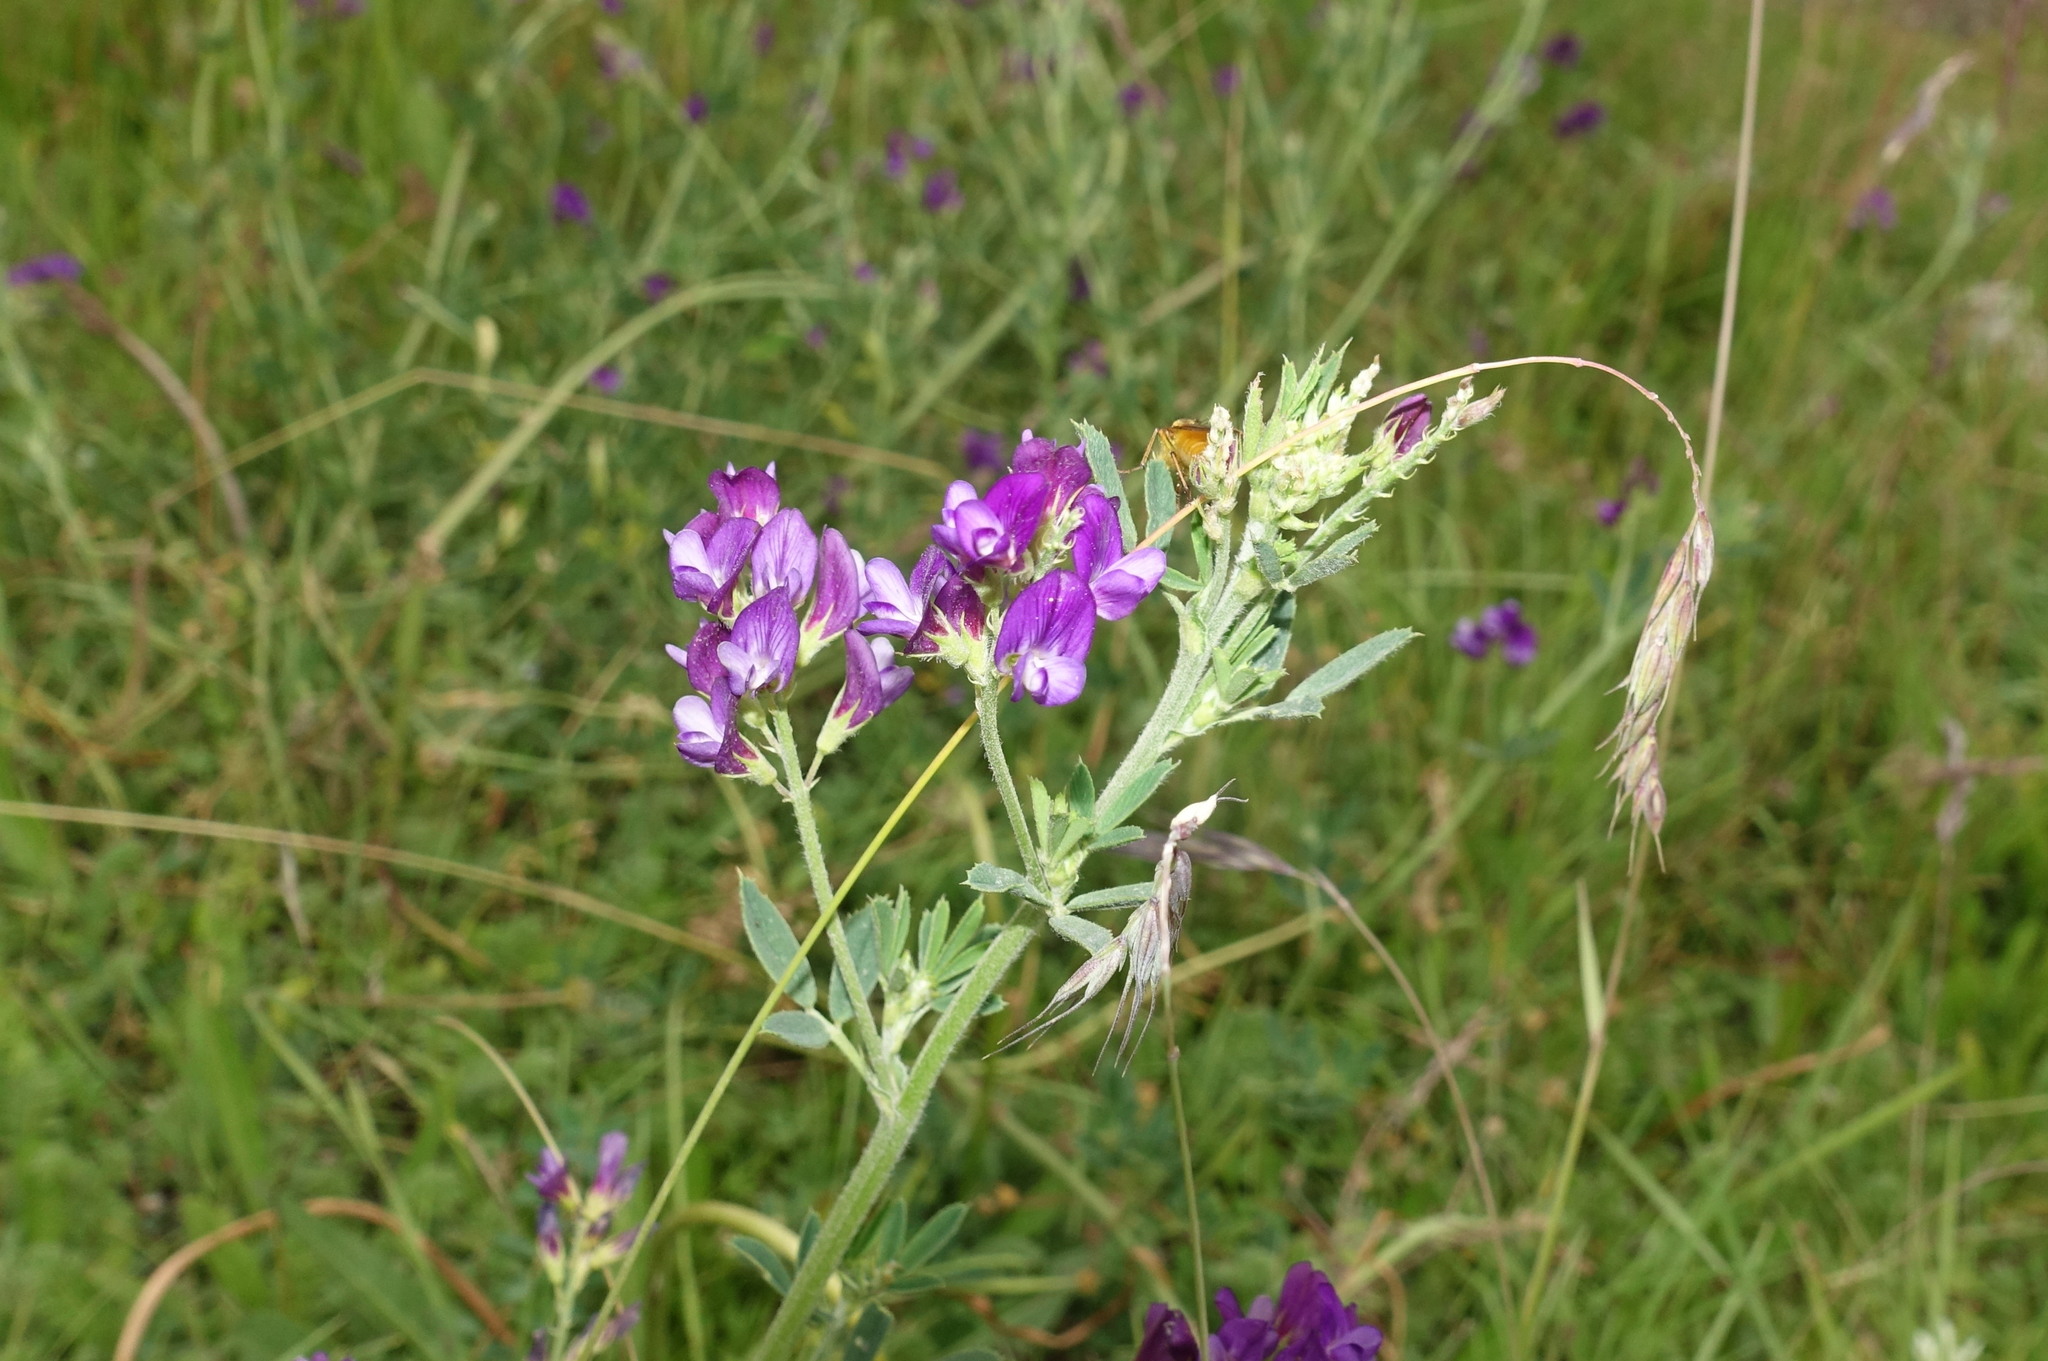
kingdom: Plantae
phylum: Tracheophyta
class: Magnoliopsida
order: Fabales
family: Fabaceae
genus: Medicago
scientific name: Medicago sativa
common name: Alfalfa
